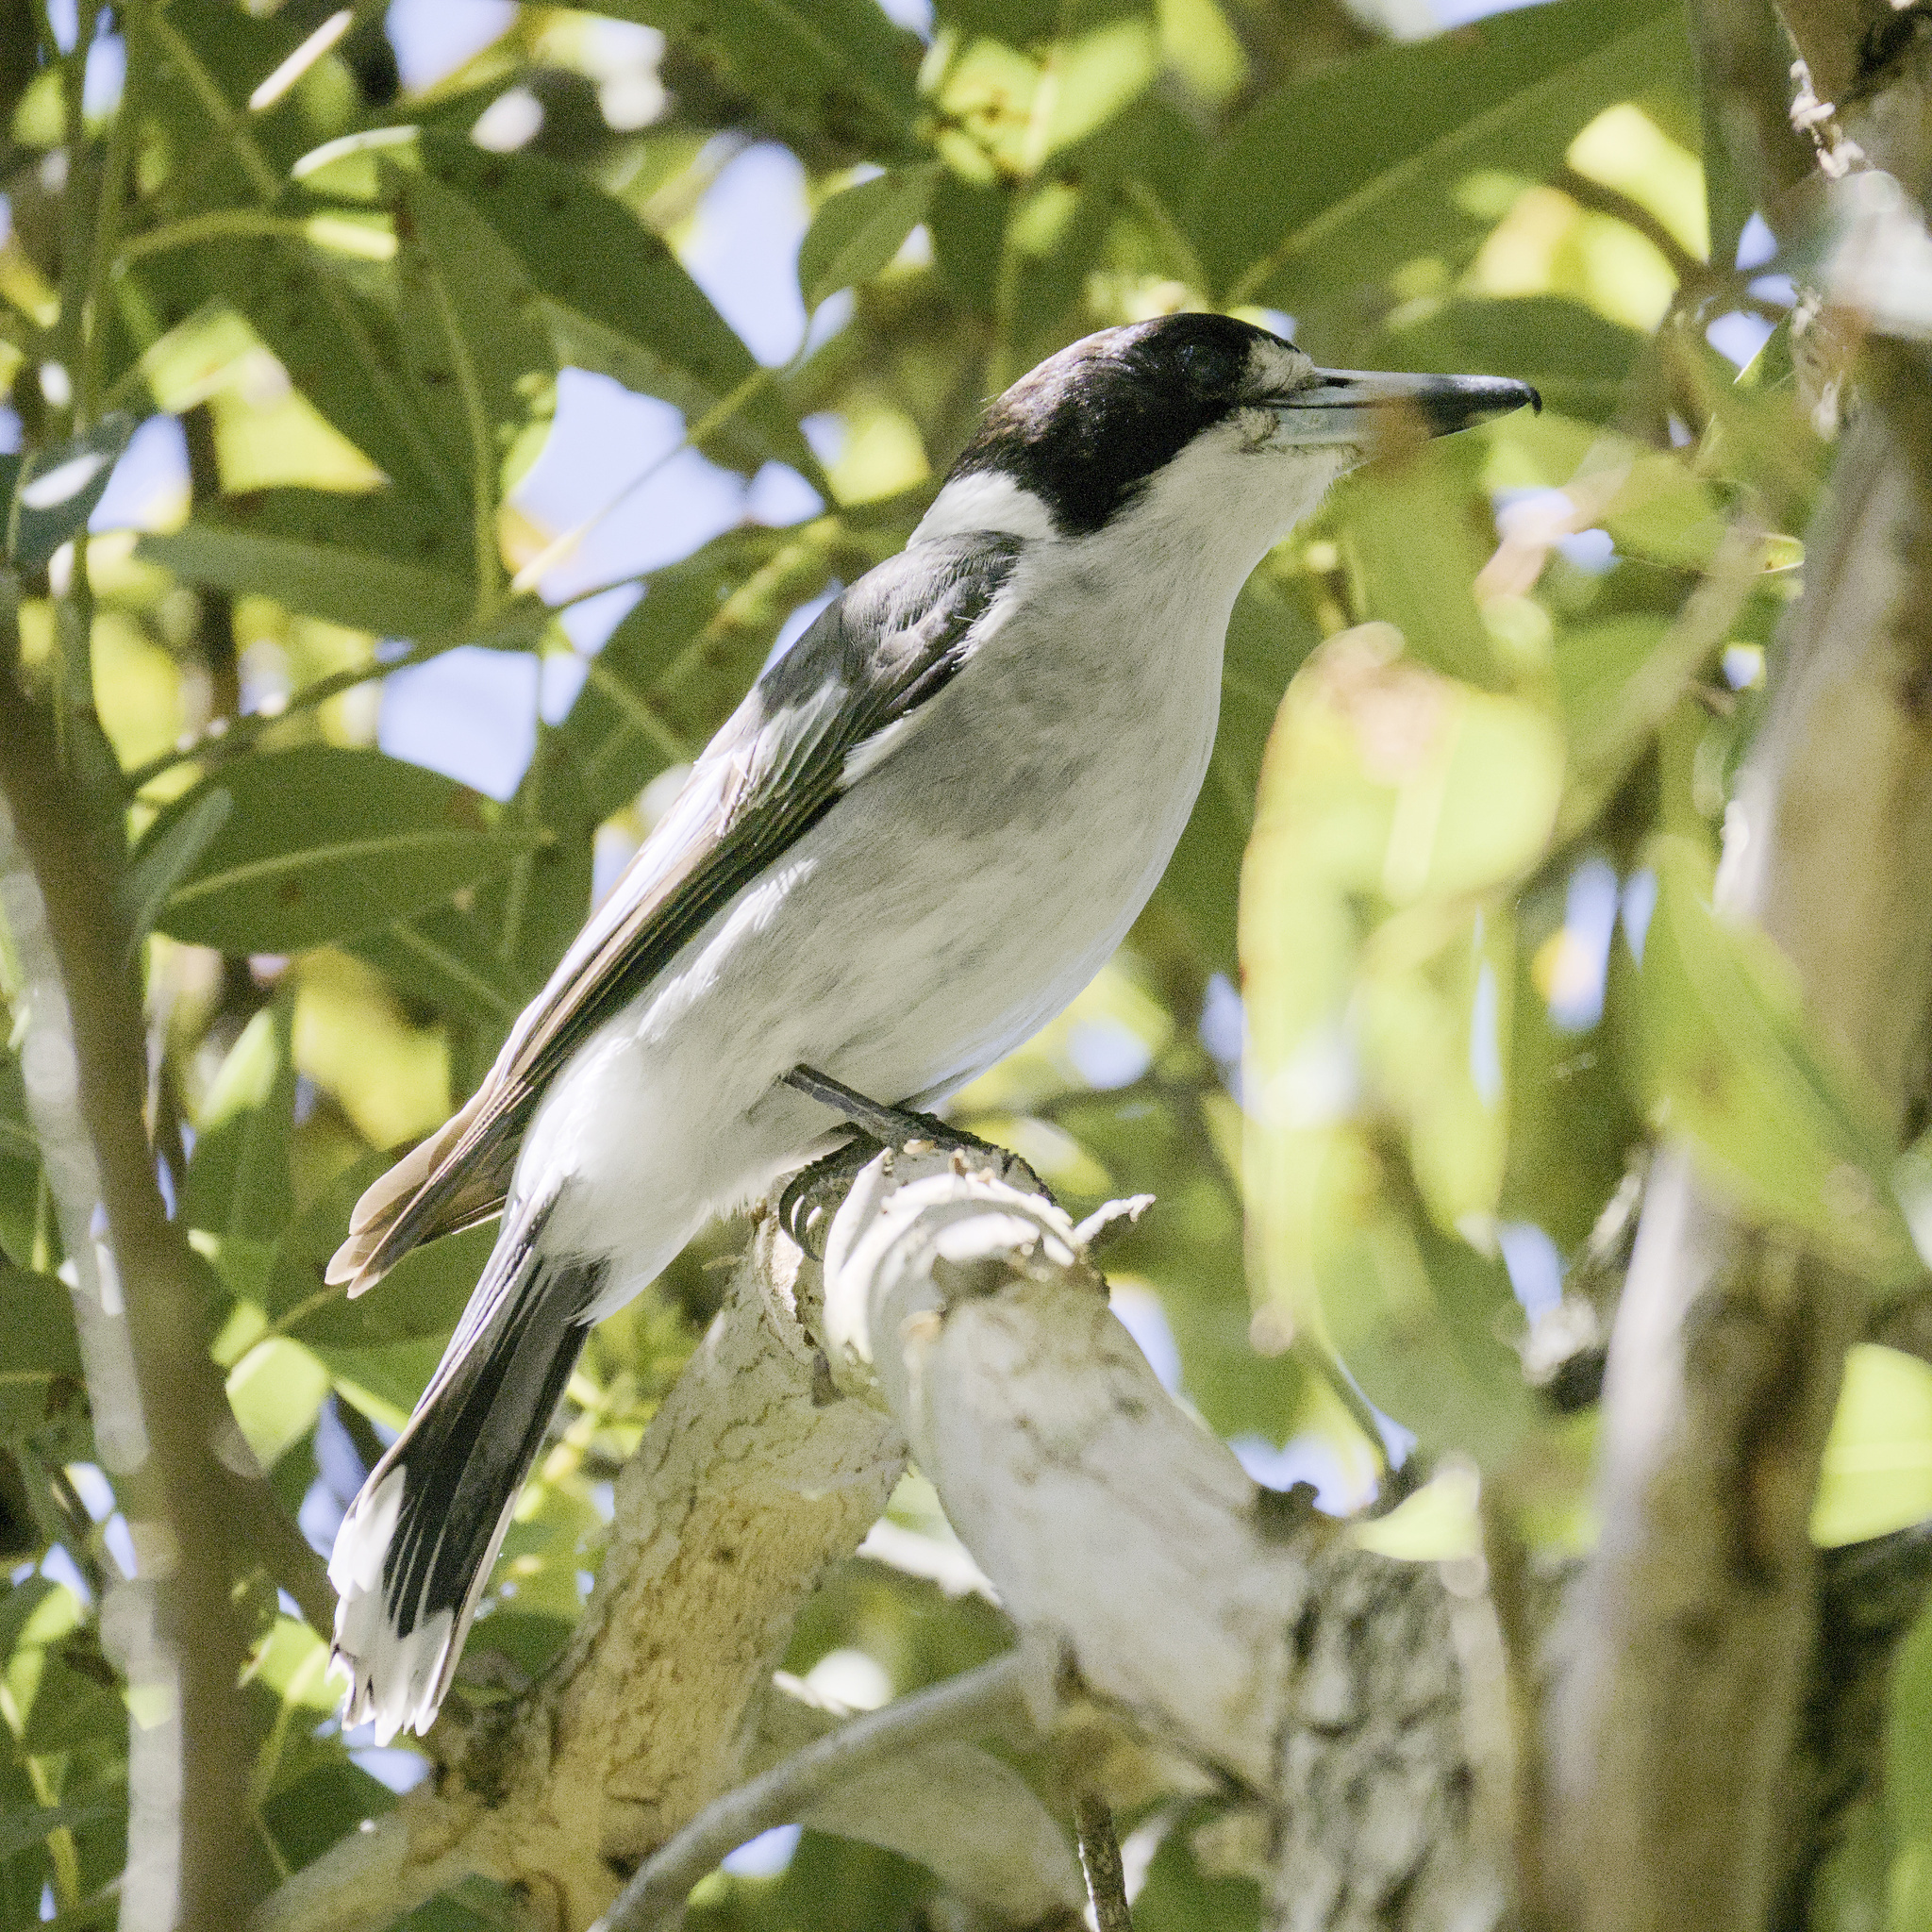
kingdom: Animalia
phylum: Chordata
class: Aves
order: Passeriformes
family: Cracticidae
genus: Cracticus
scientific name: Cracticus torquatus
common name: Grey butcherbird
